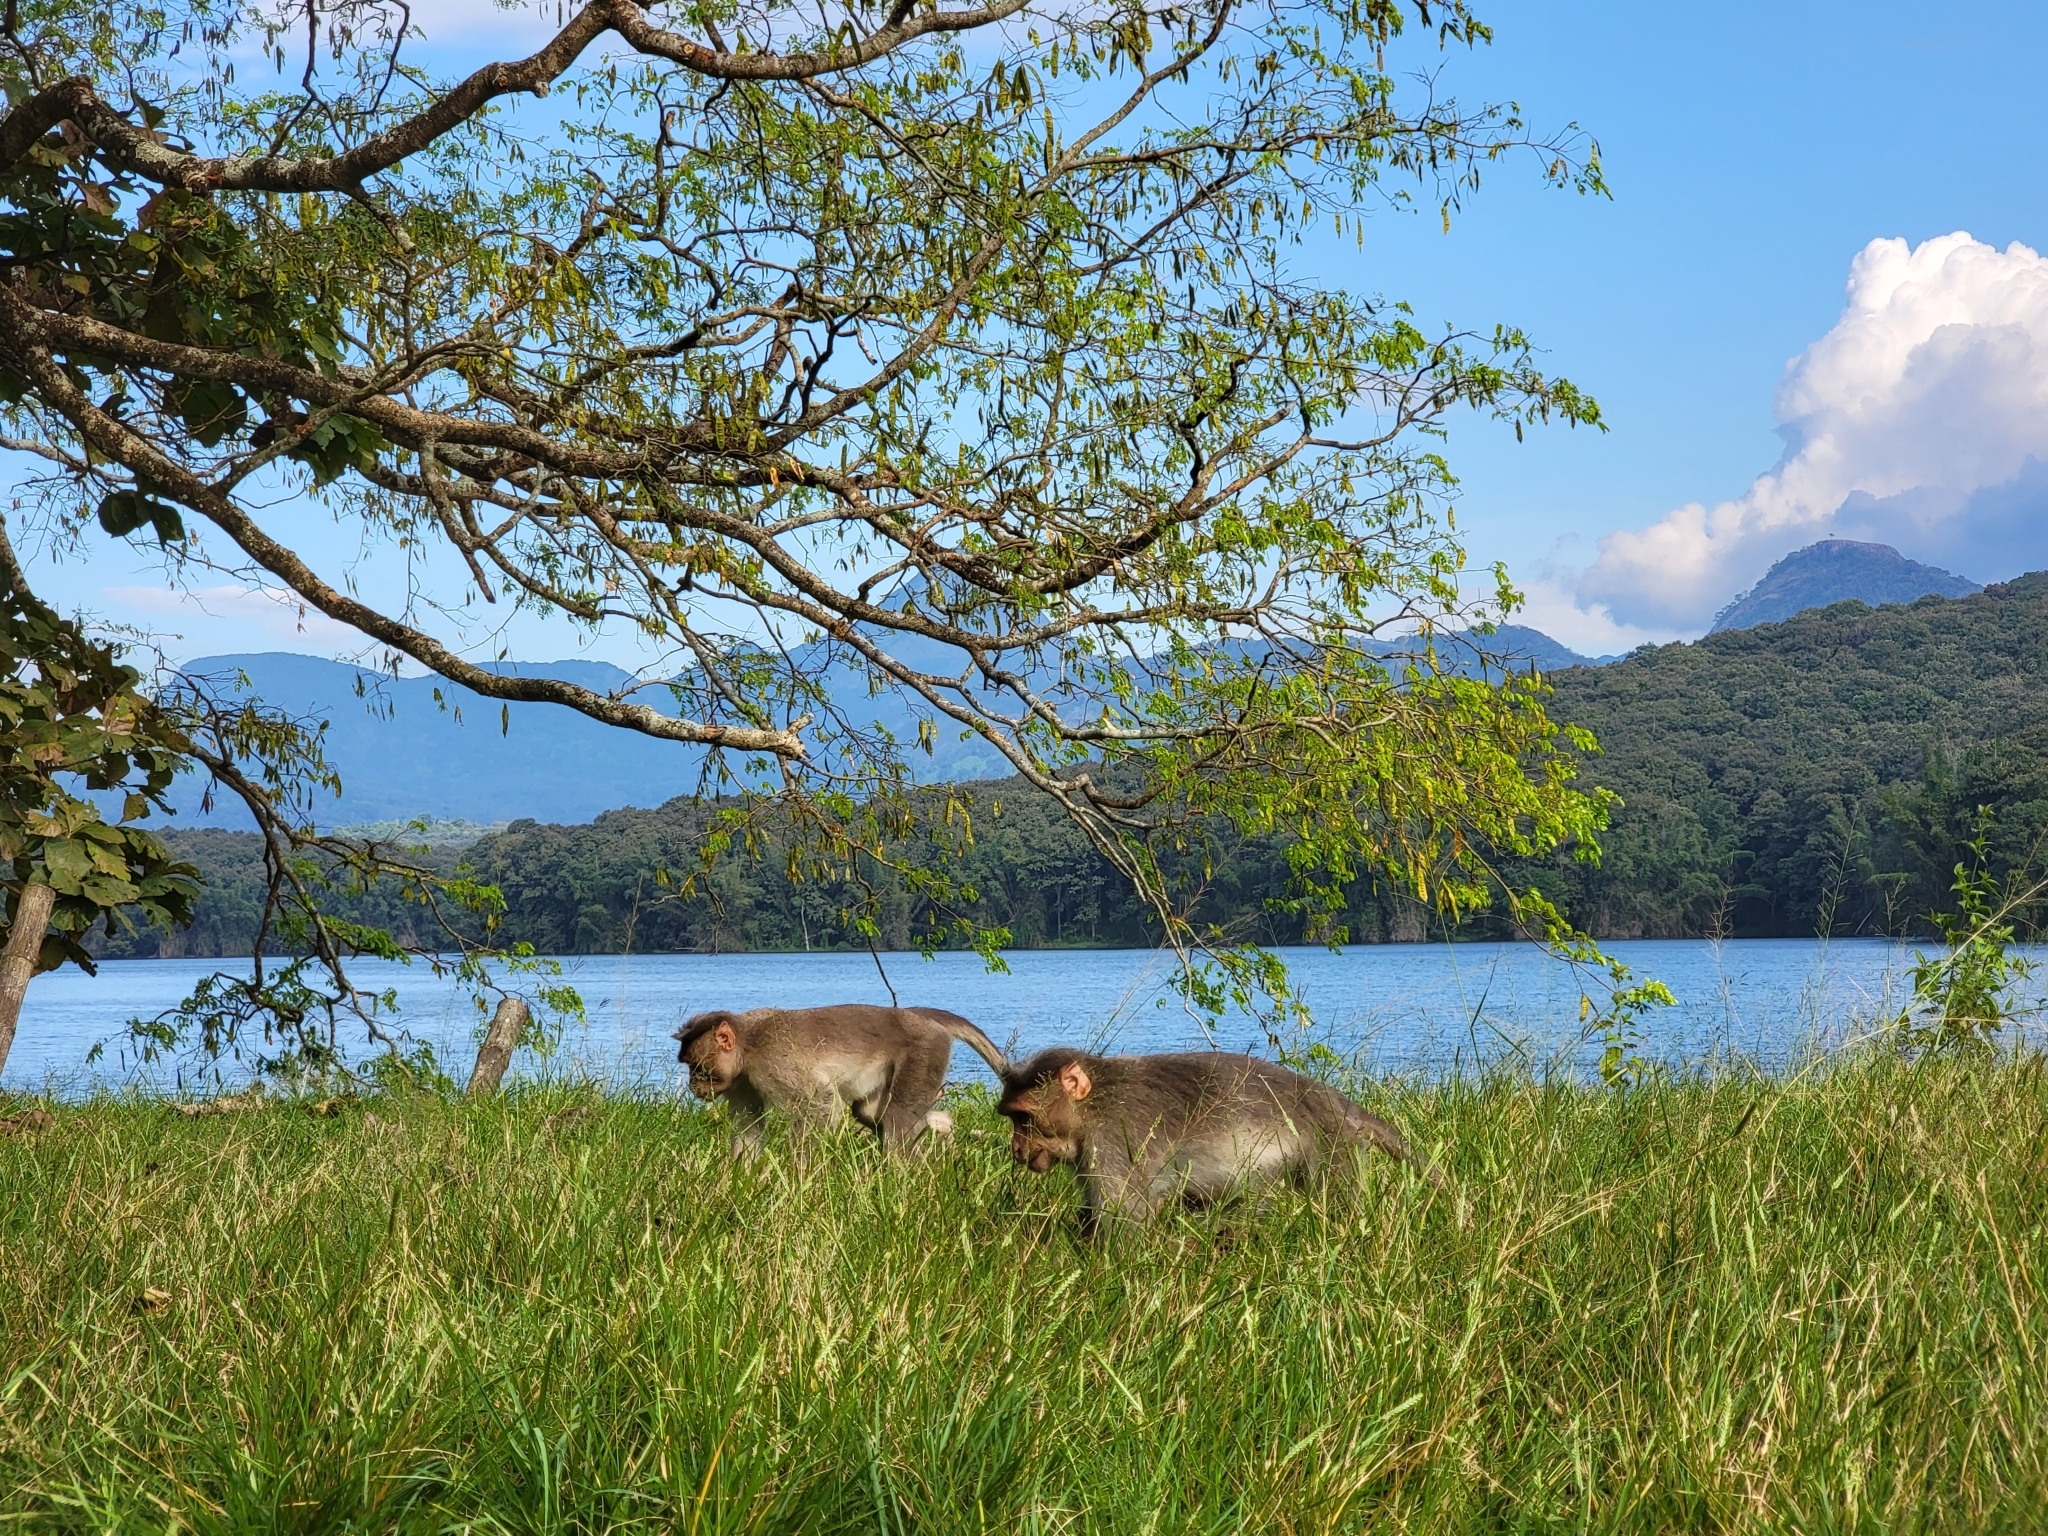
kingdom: Animalia
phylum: Chordata
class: Mammalia
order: Primates
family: Cercopithecidae
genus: Macaca
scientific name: Macaca radiata
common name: Bonnet macaque
